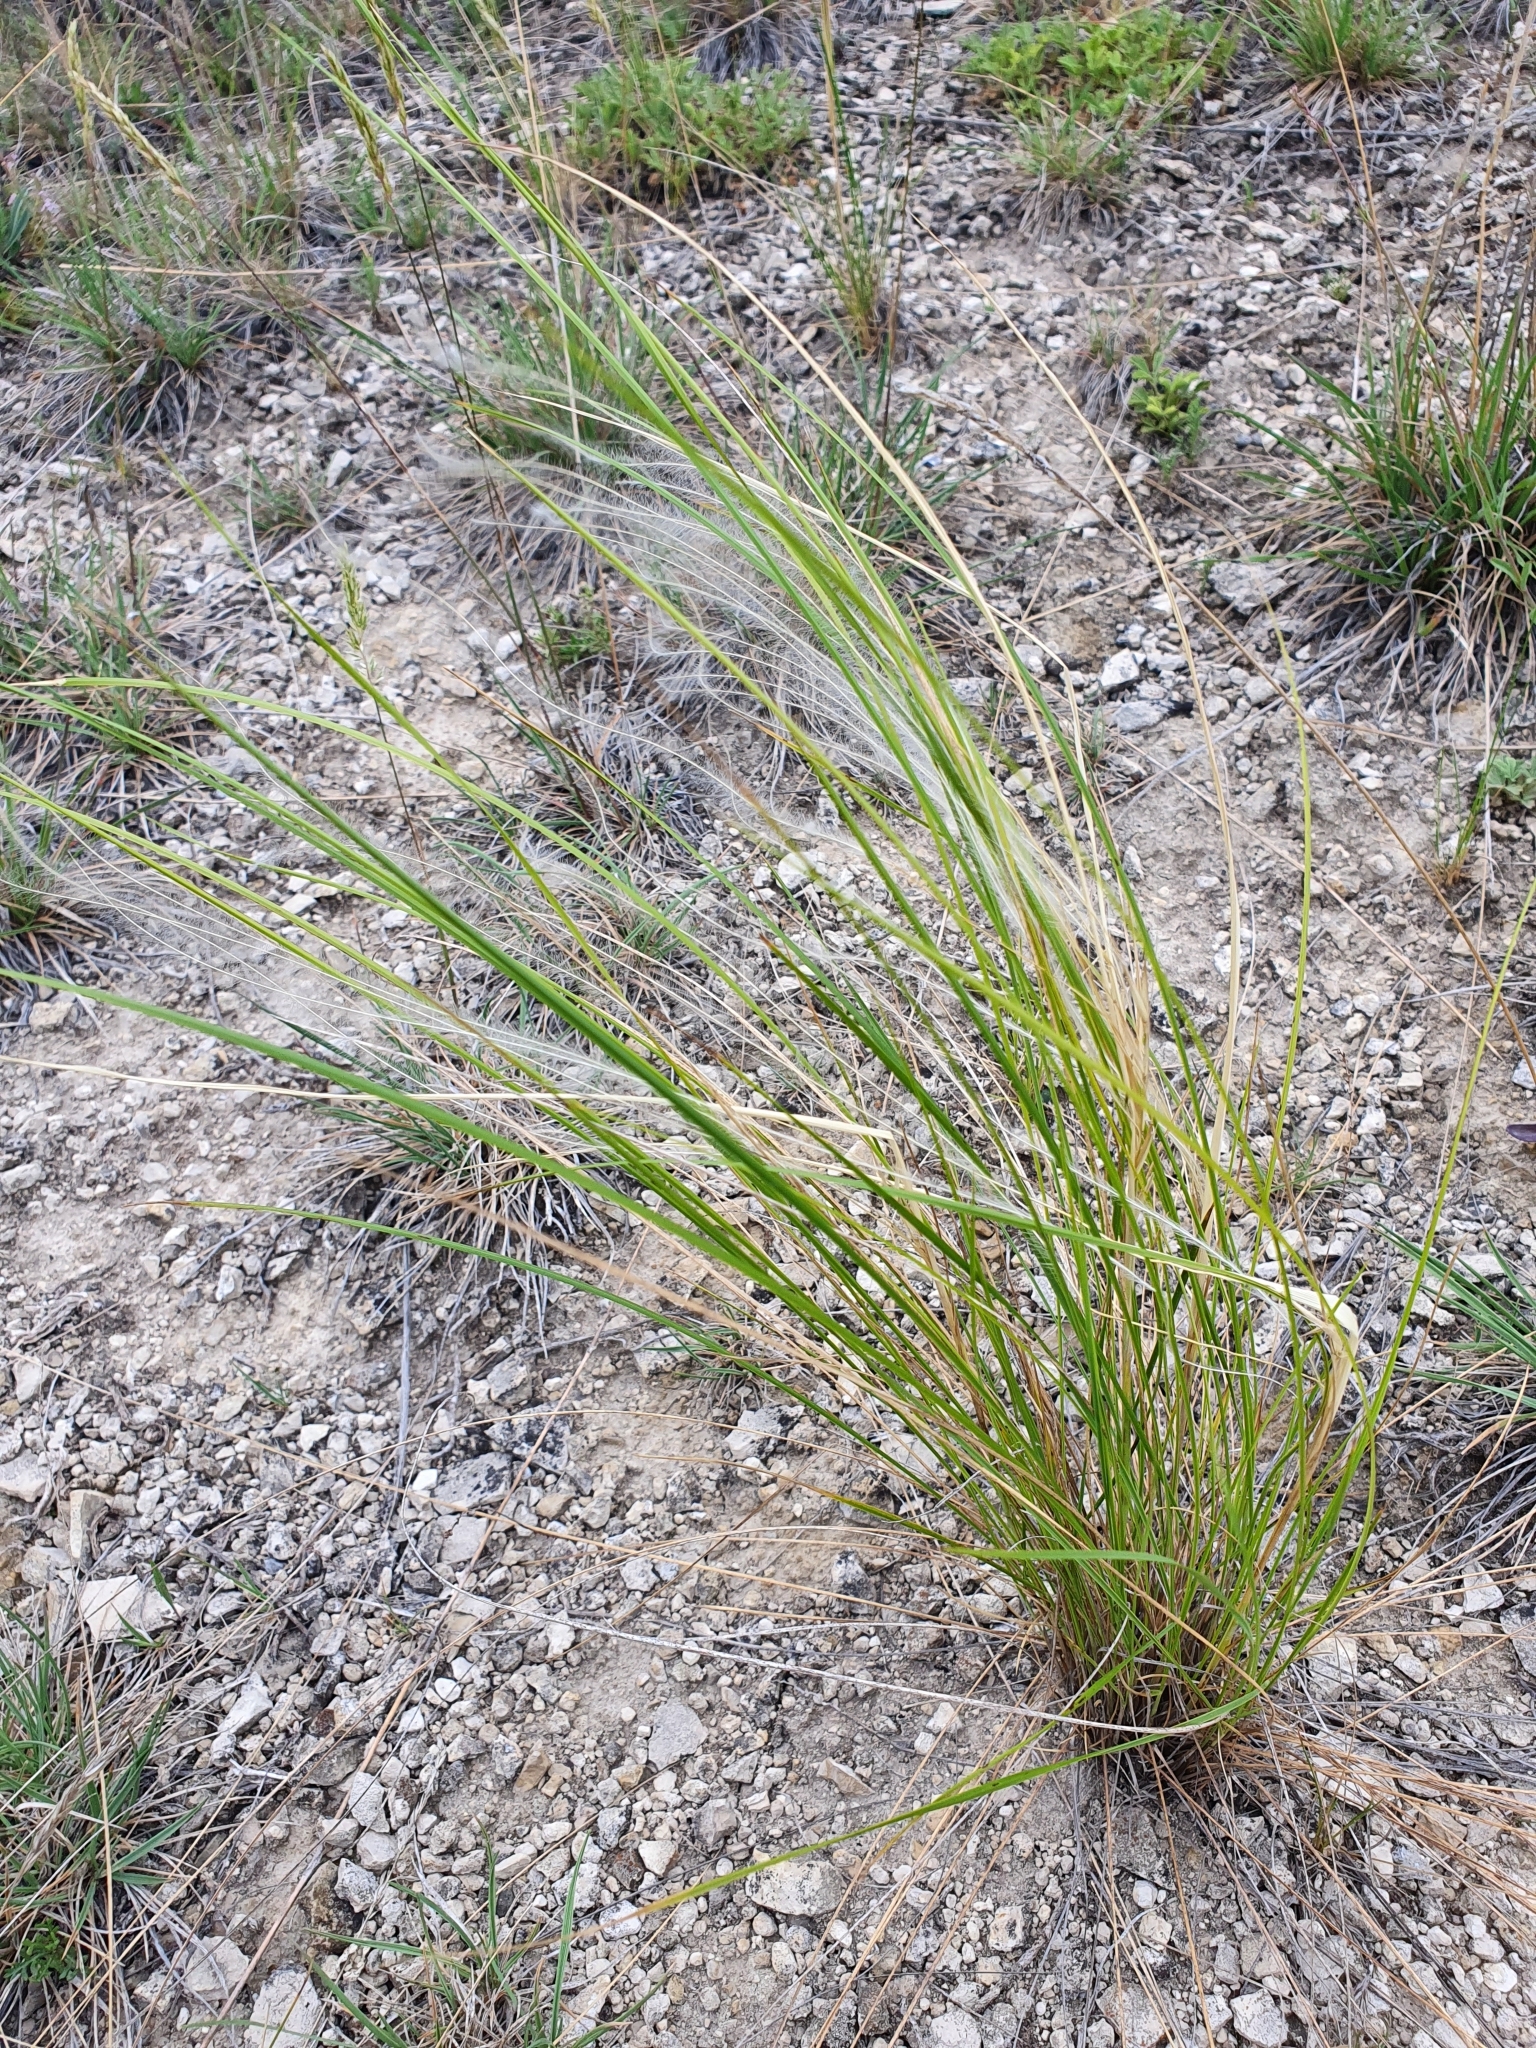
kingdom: Plantae
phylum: Tracheophyta
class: Liliopsida
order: Poales
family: Poaceae
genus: Stipa
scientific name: Stipa lessingiana
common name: Needle grass
